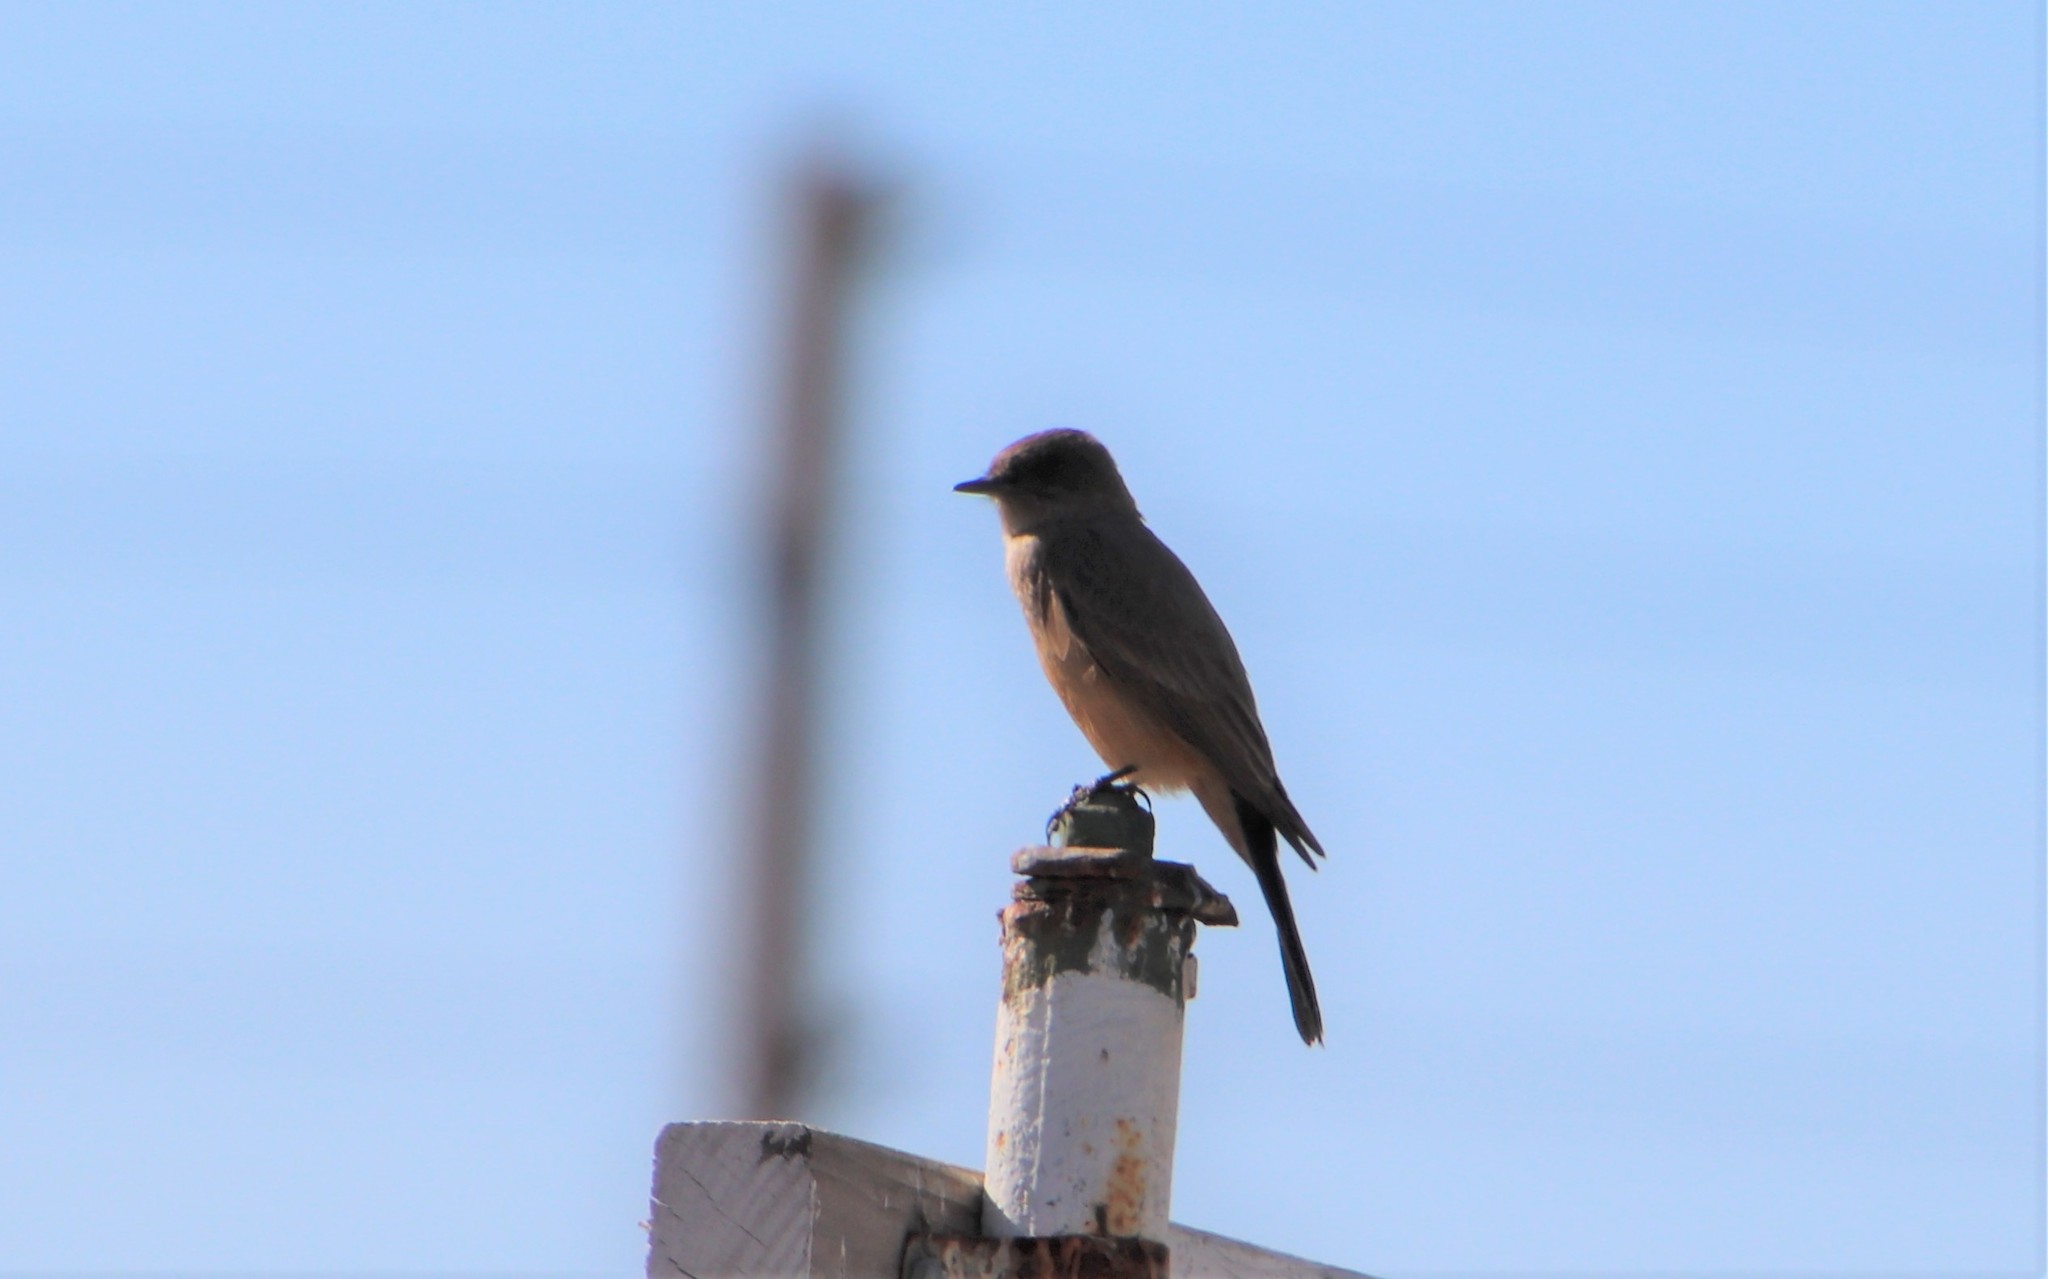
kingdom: Animalia
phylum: Chordata
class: Aves
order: Passeriformes
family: Tyrannidae
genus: Sayornis
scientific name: Sayornis saya
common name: Say's phoebe
